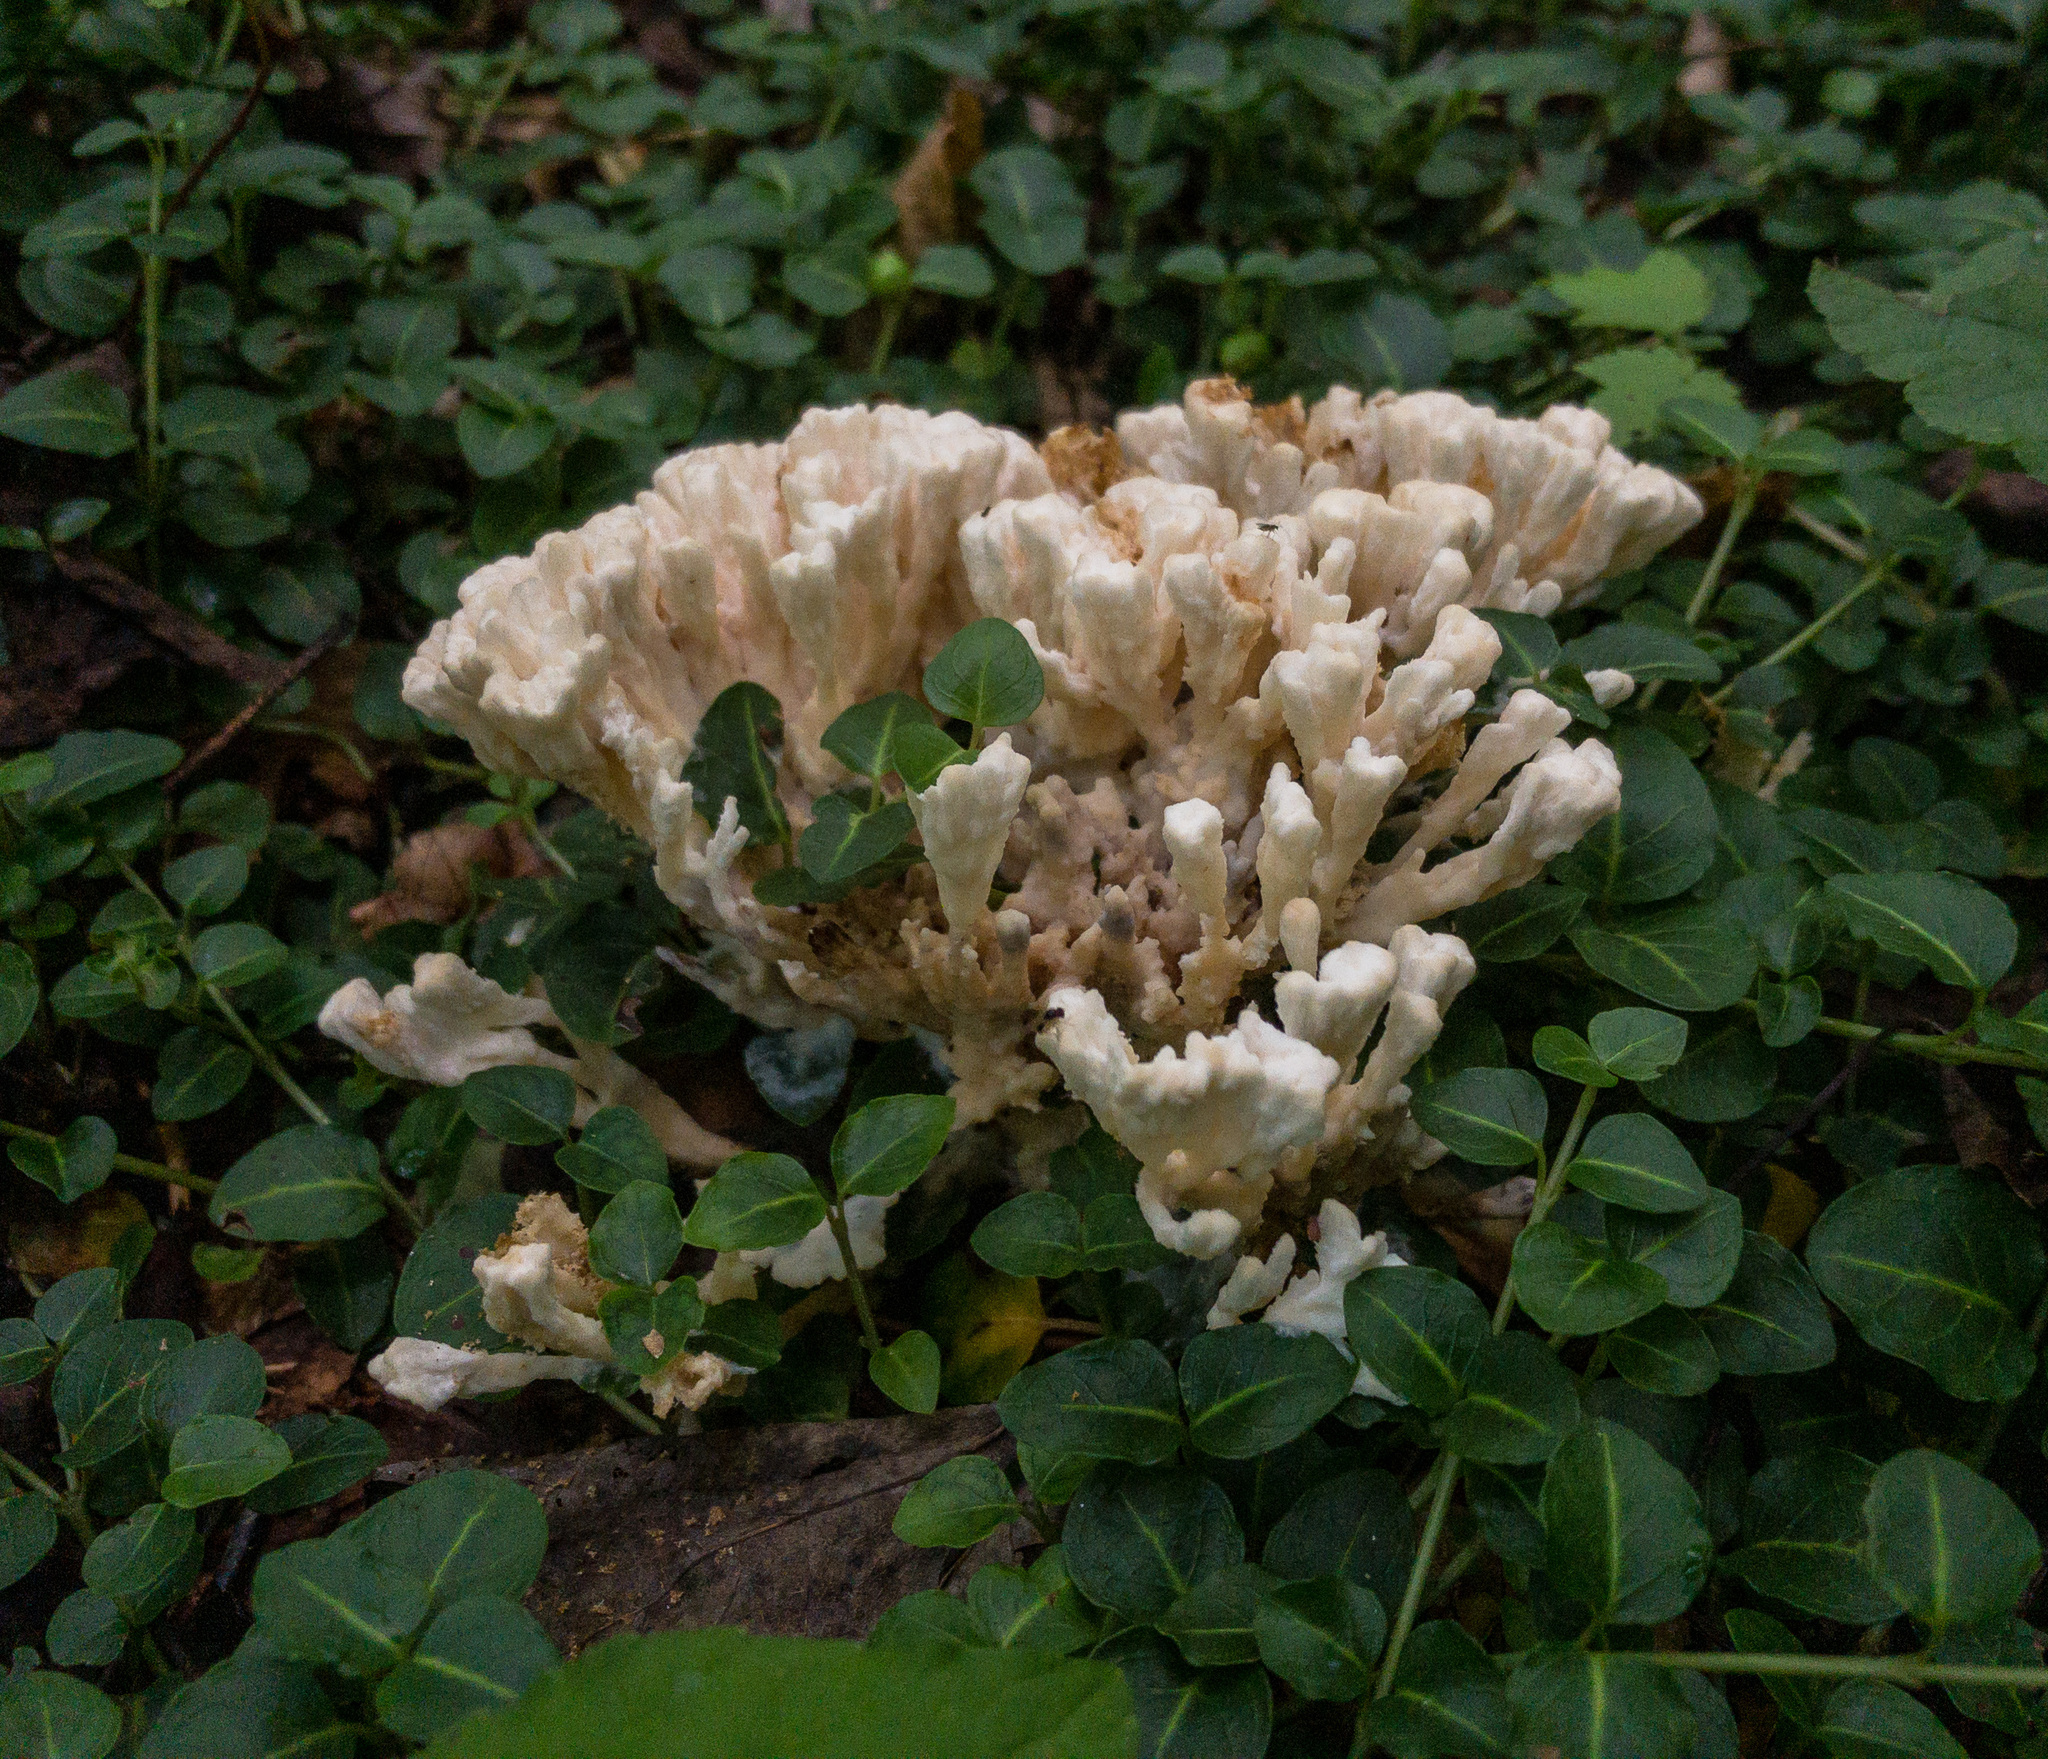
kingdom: Fungi
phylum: Basidiomycota
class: Agaricomycetes
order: Sebacinales
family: Sebacinaceae
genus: Sebacina
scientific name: Sebacina schweinitzii
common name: Jellied false coral fungus
